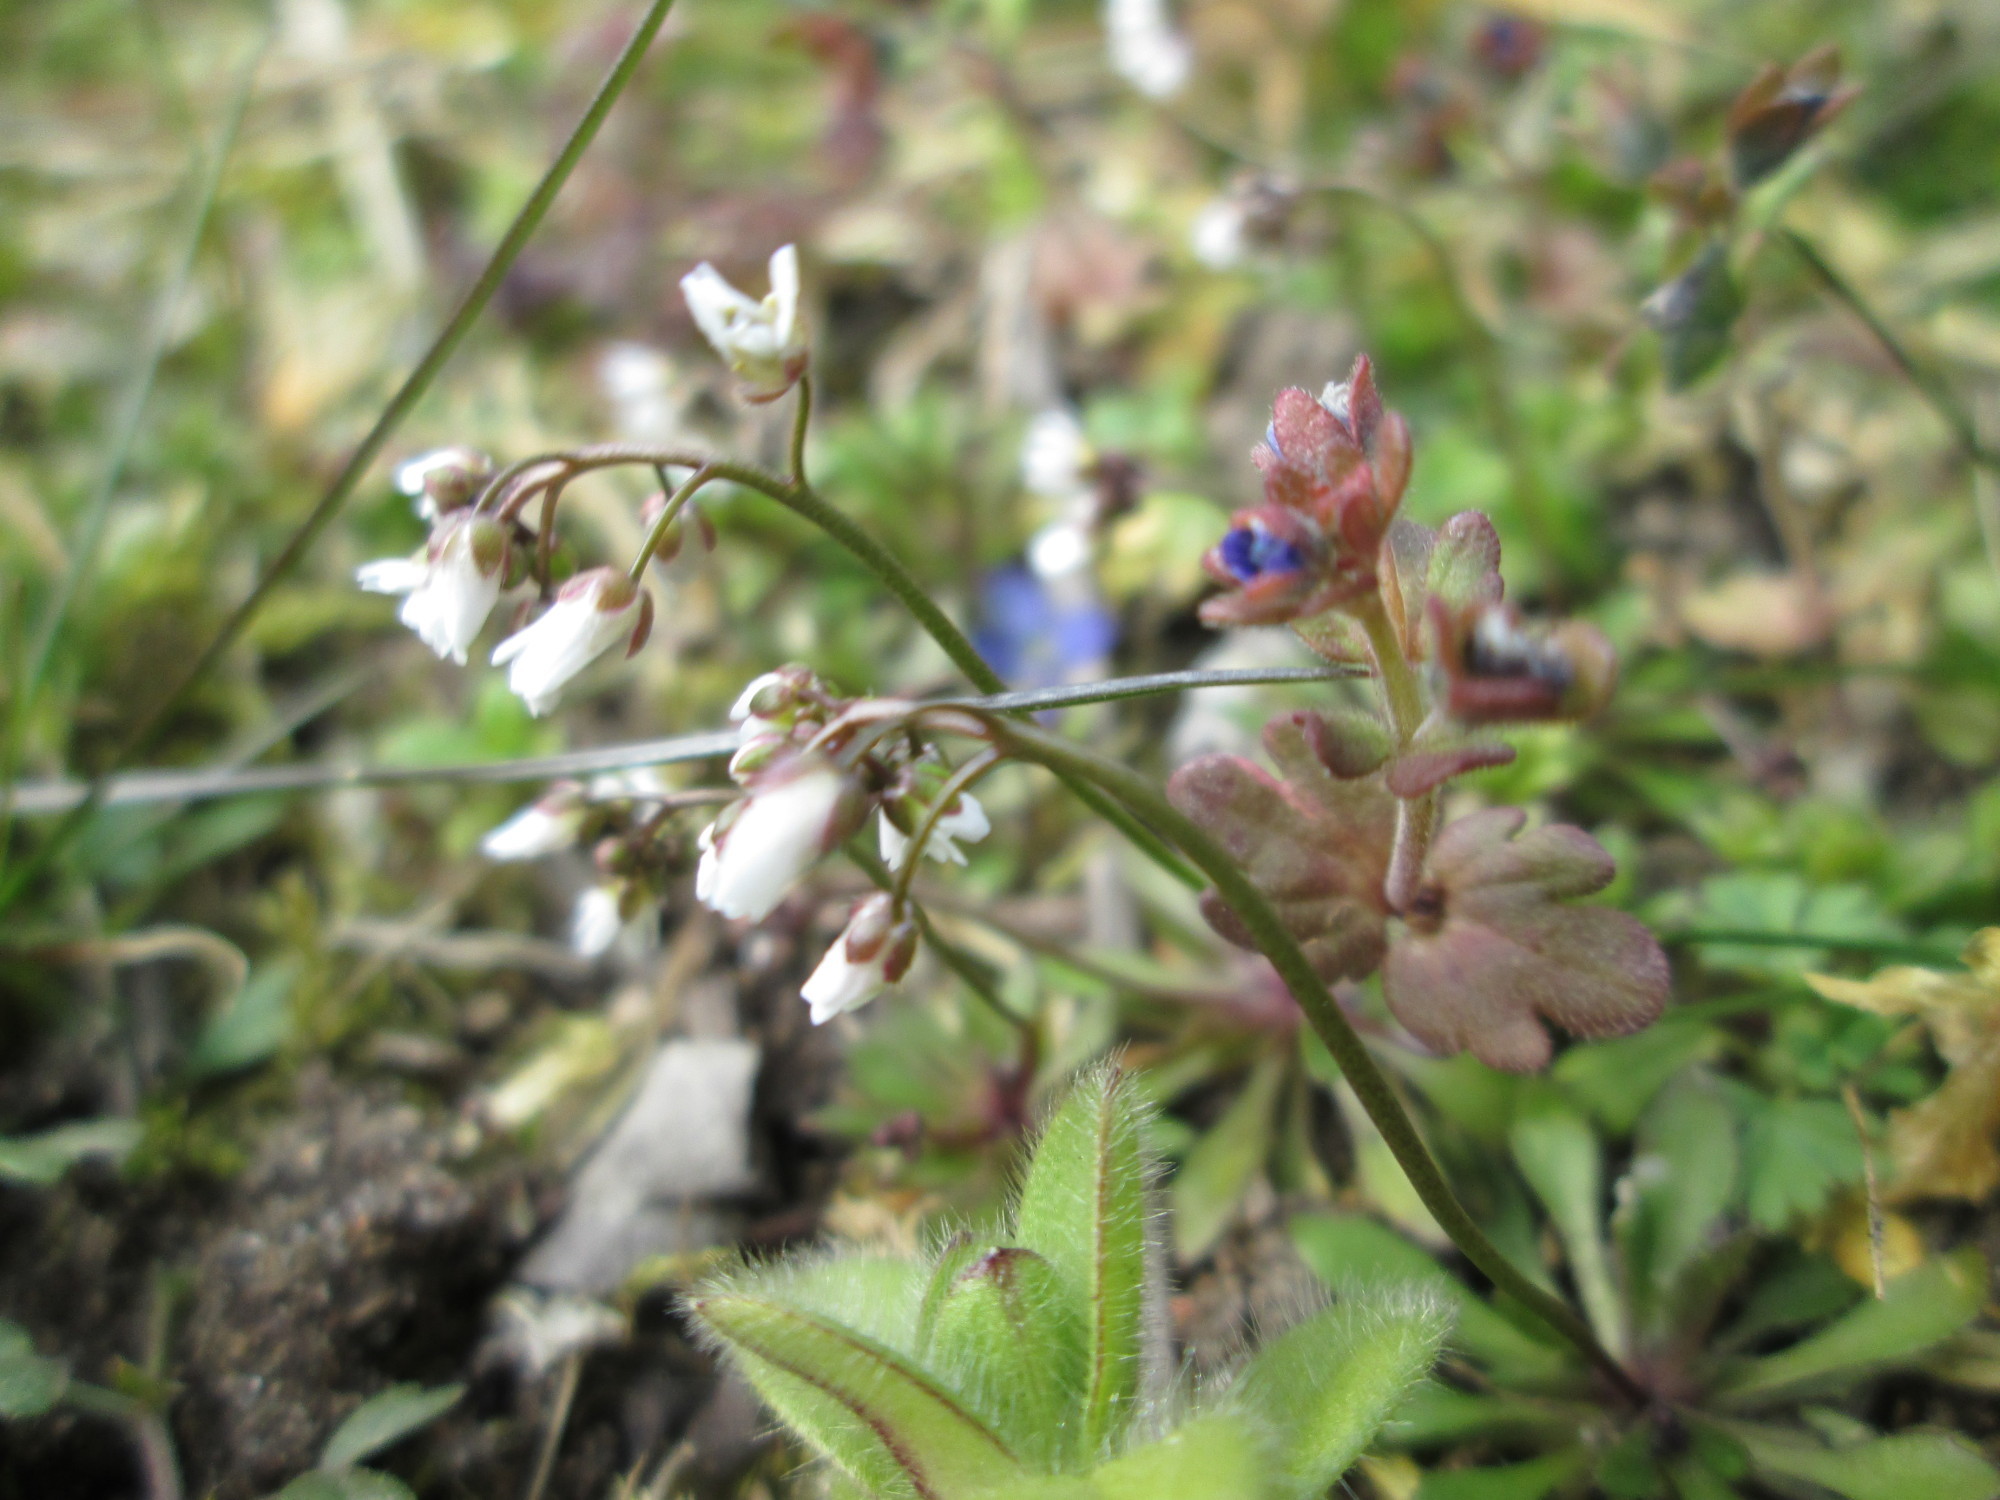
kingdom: Plantae
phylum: Tracheophyta
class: Magnoliopsida
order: Brassicales
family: Brassicaceae
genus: Draba
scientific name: Draba verna
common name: Spring draba
